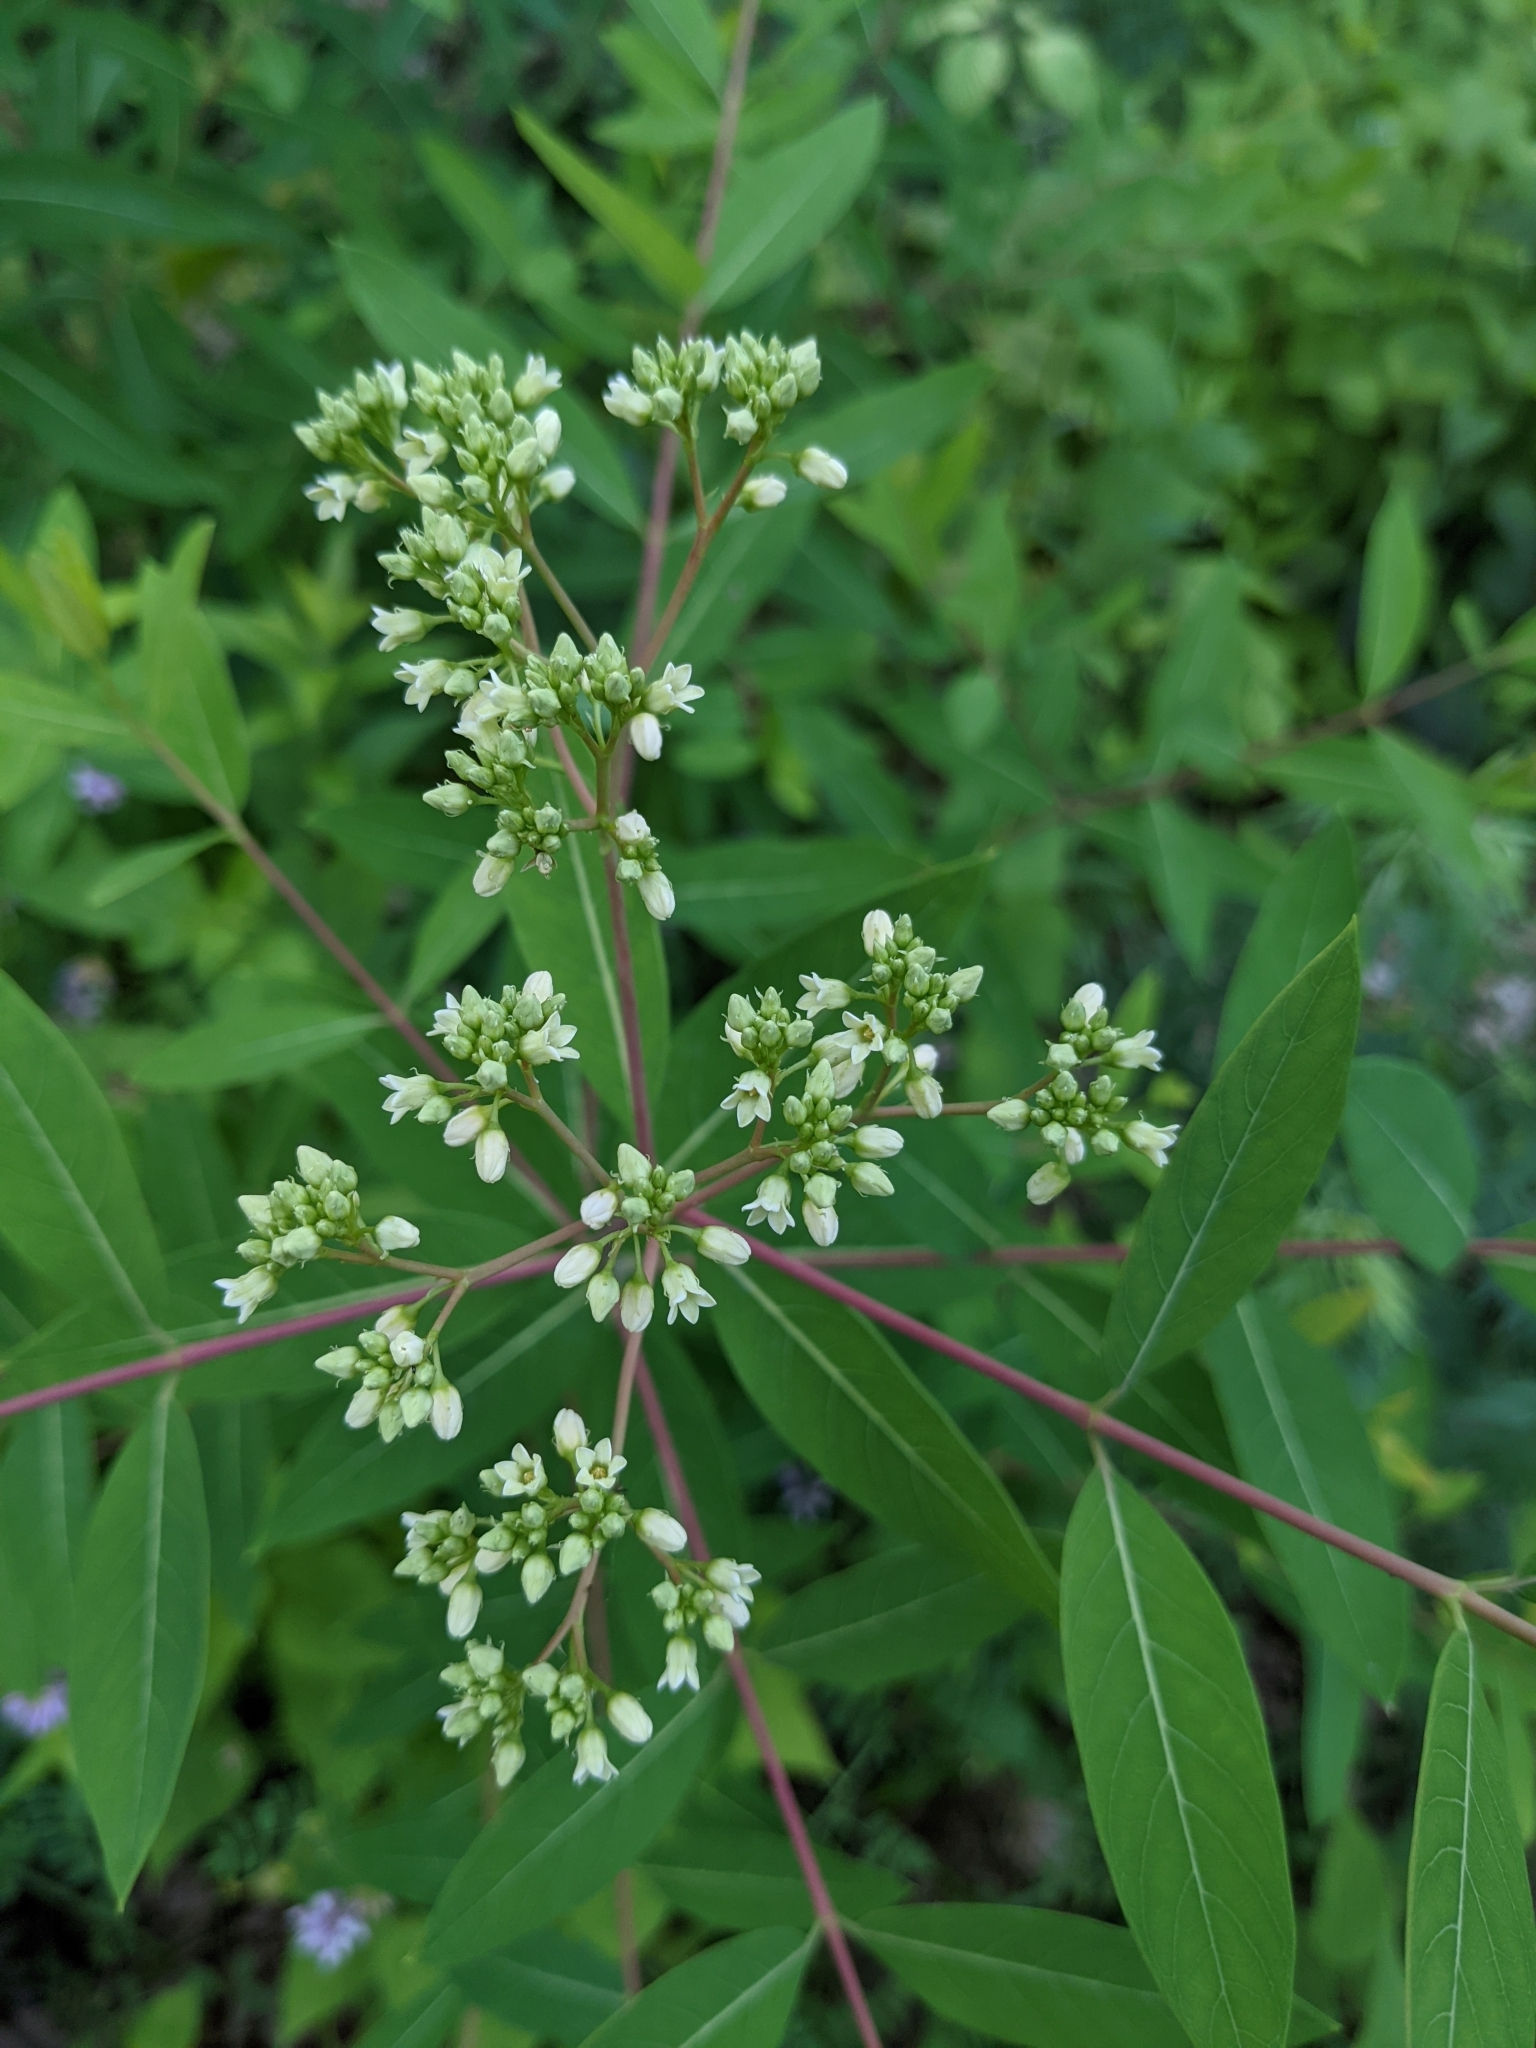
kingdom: Plantae
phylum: Tracheophyta
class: Magnoliopsida
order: Gentianales
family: Apocynaceae
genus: Apocynum
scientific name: Apocynum cannabinum
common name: Hemp dogbane
